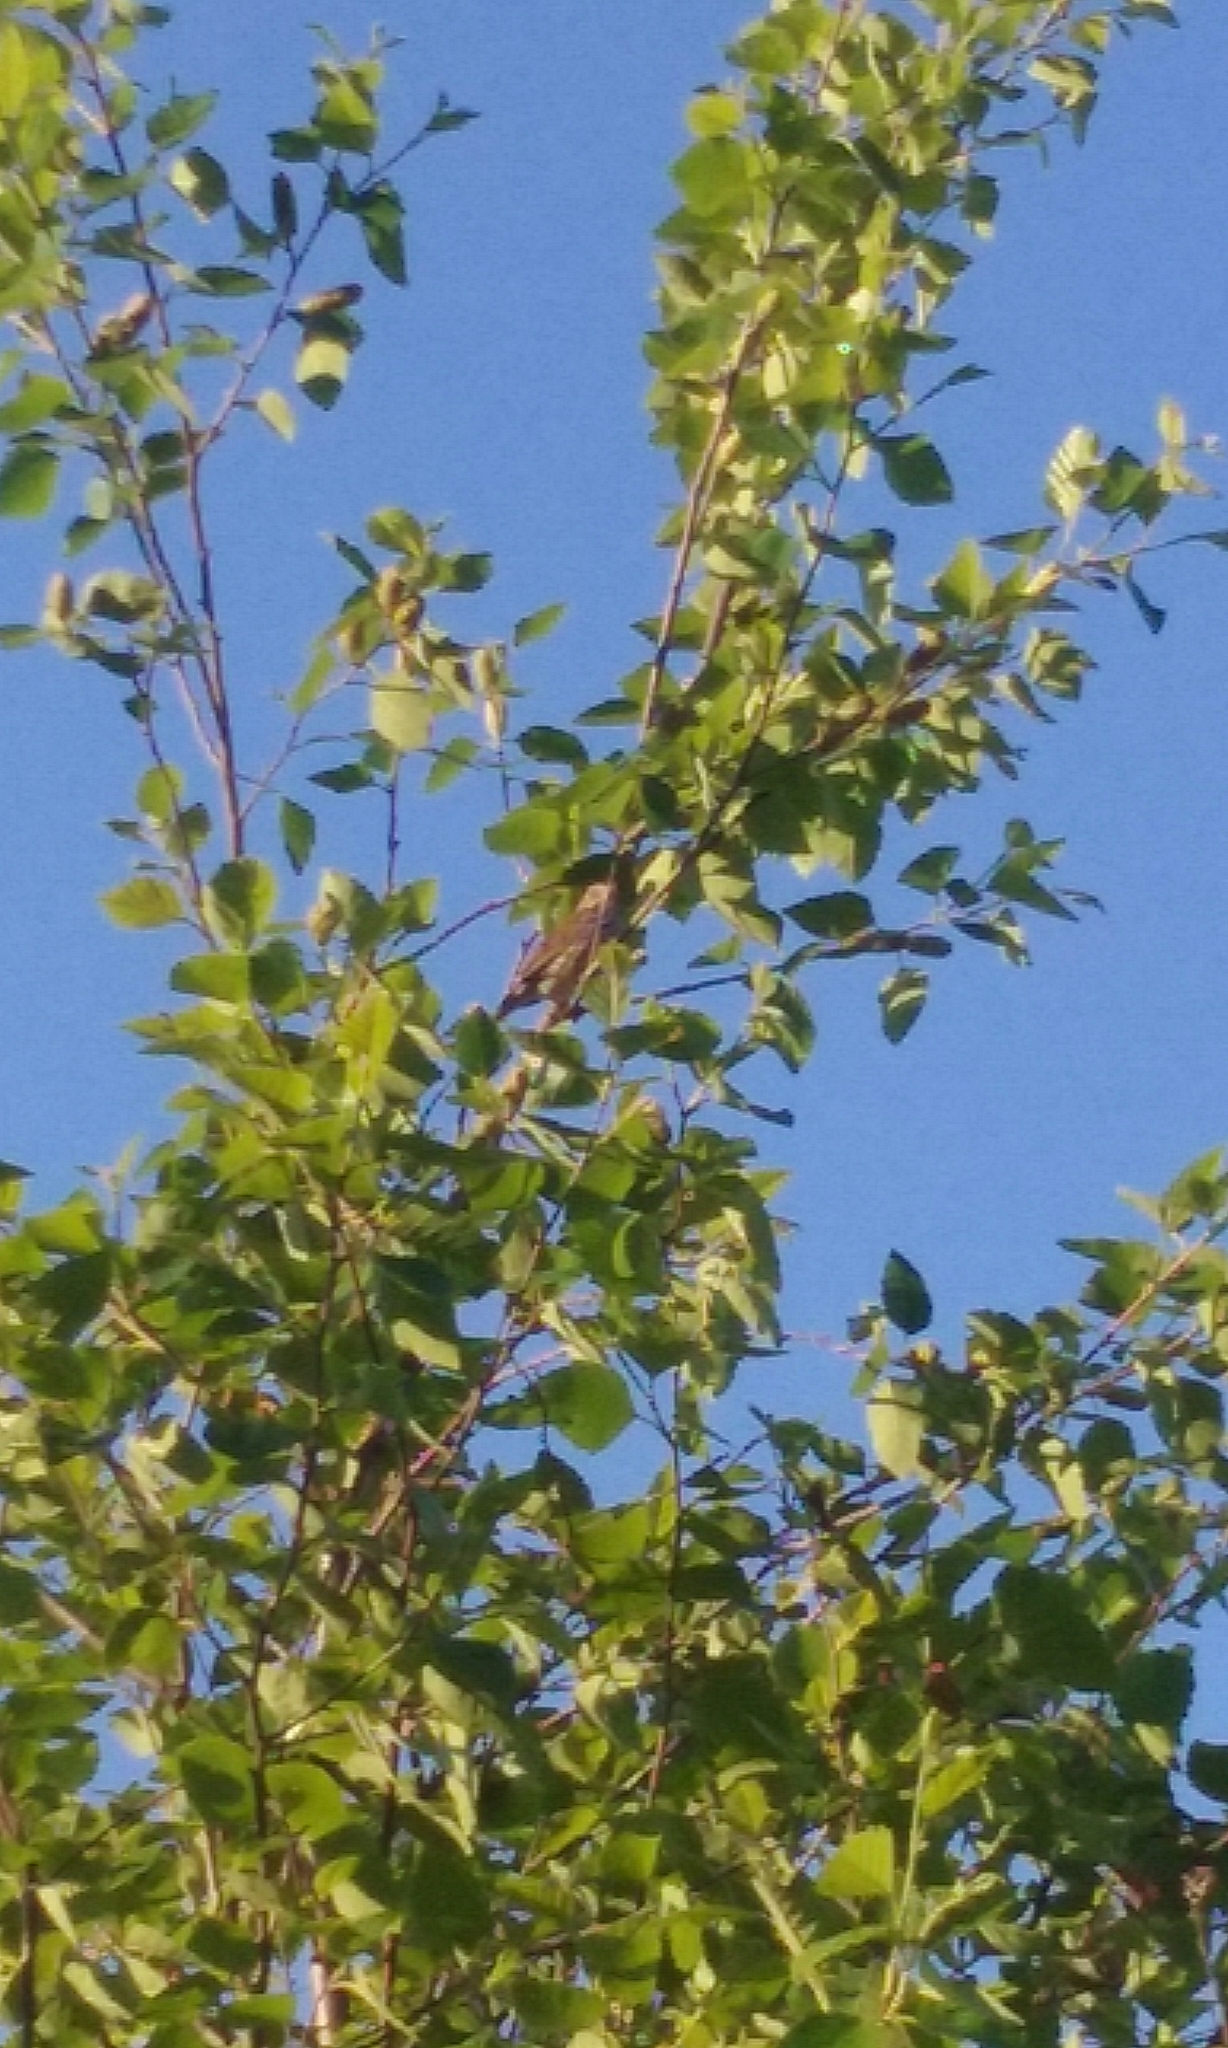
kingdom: Animalia
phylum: Chordata
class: Aves
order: Passeriformes
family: Passerellidae
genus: Melospiza
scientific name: Melospiza melodia
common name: Song sparrow
